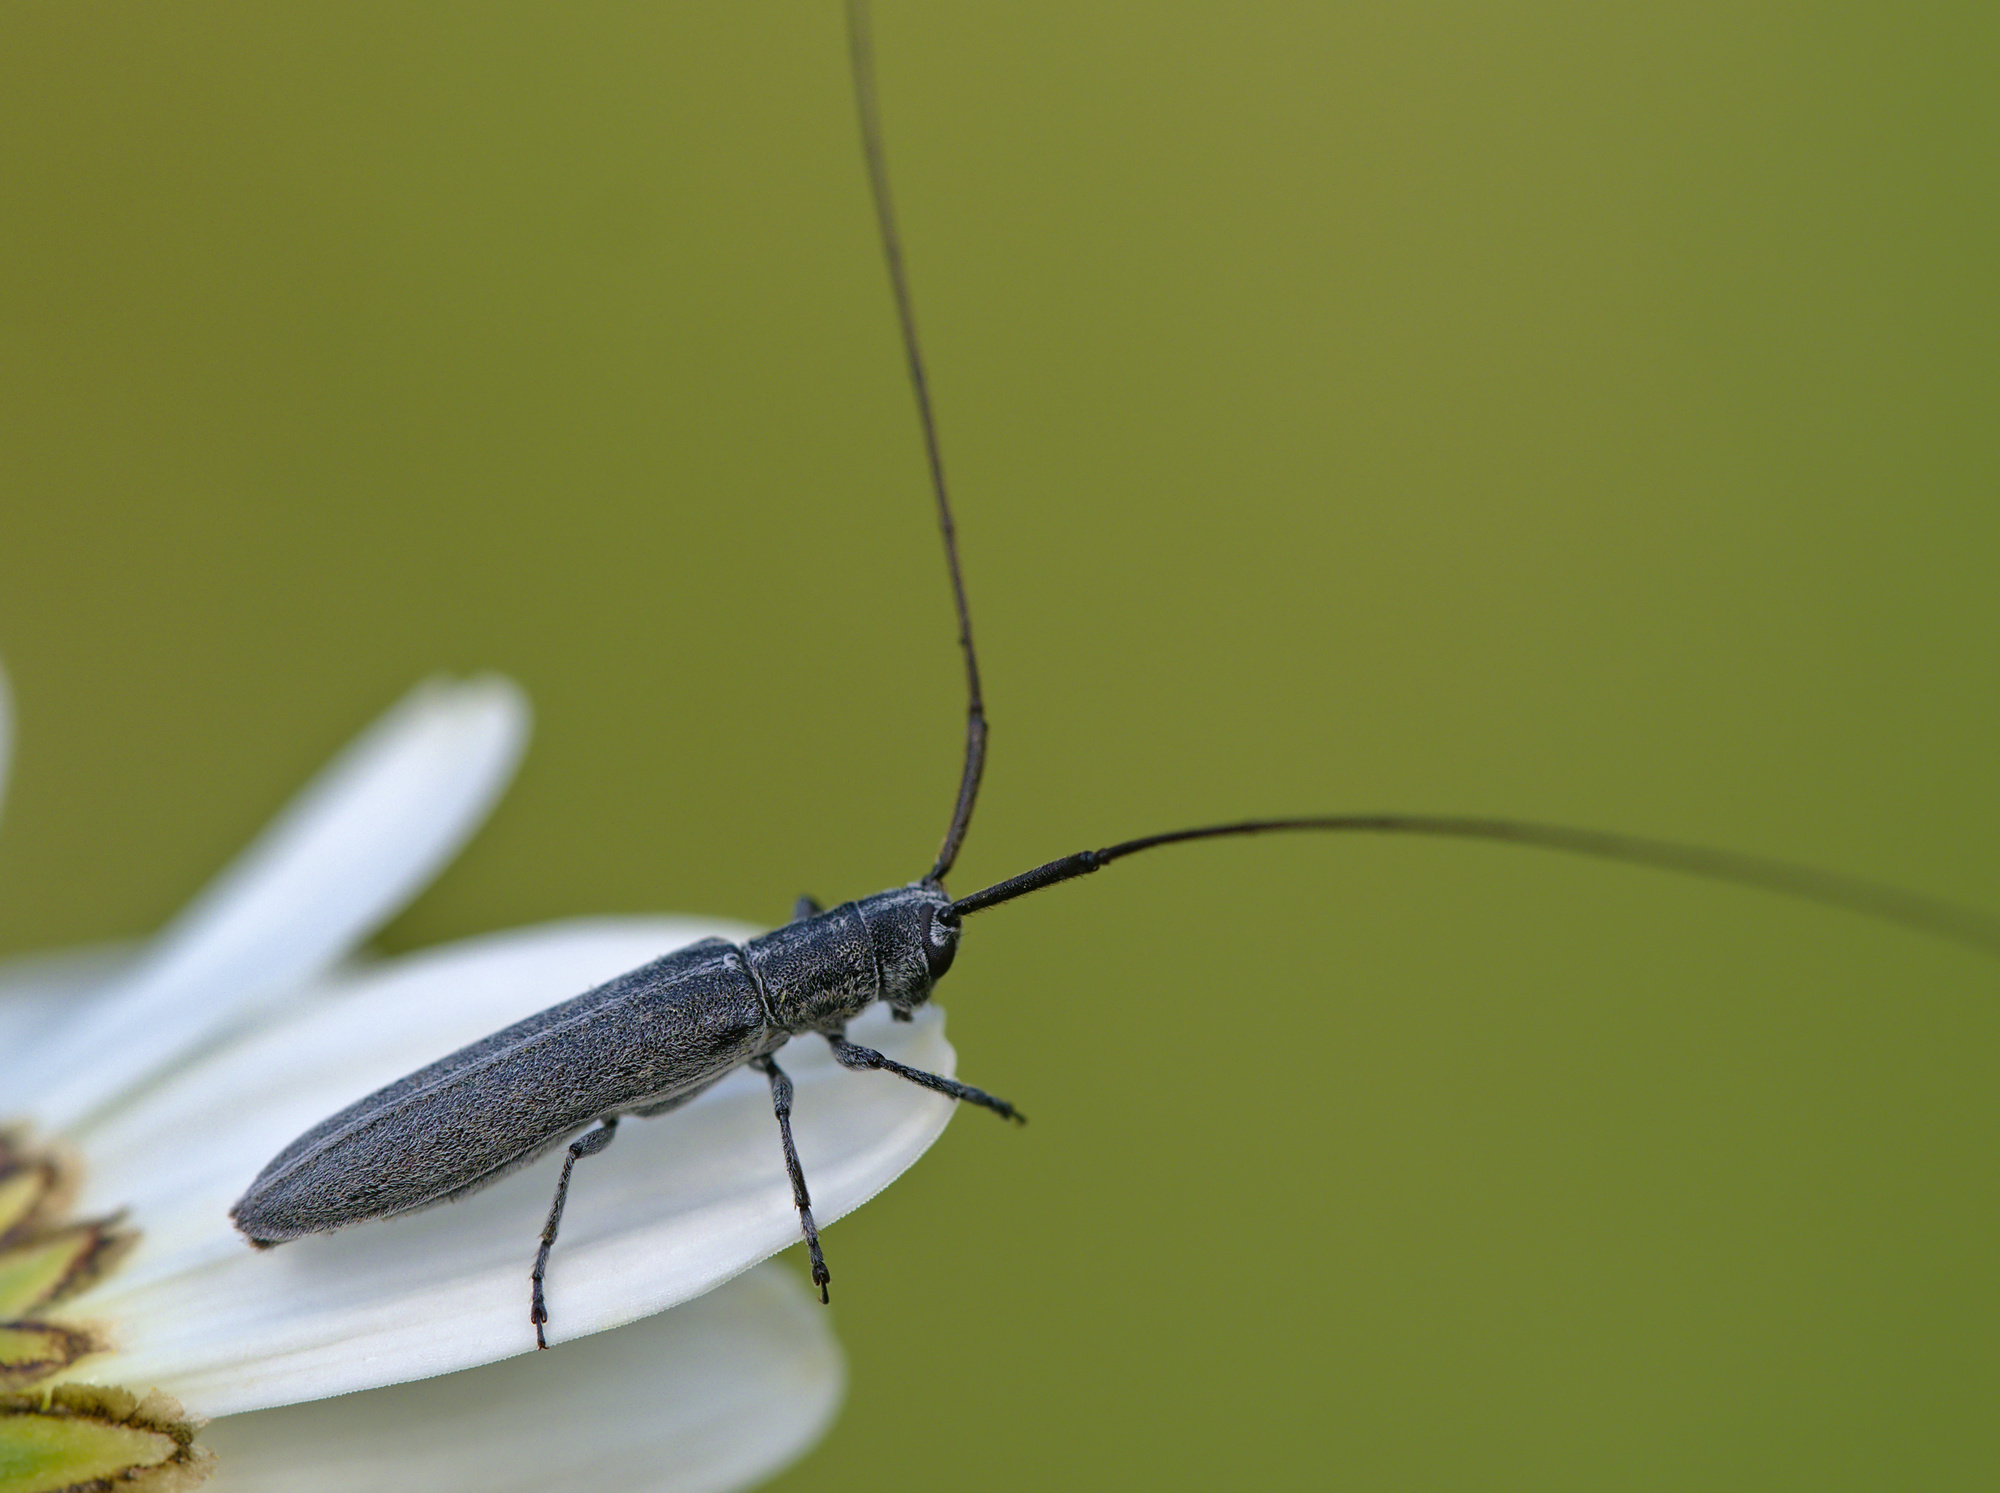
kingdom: Animalia
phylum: Arthropoda
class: Insecta
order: Coleoptera
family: Cerambycidae
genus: Calamobius
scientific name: Calamobius filum
